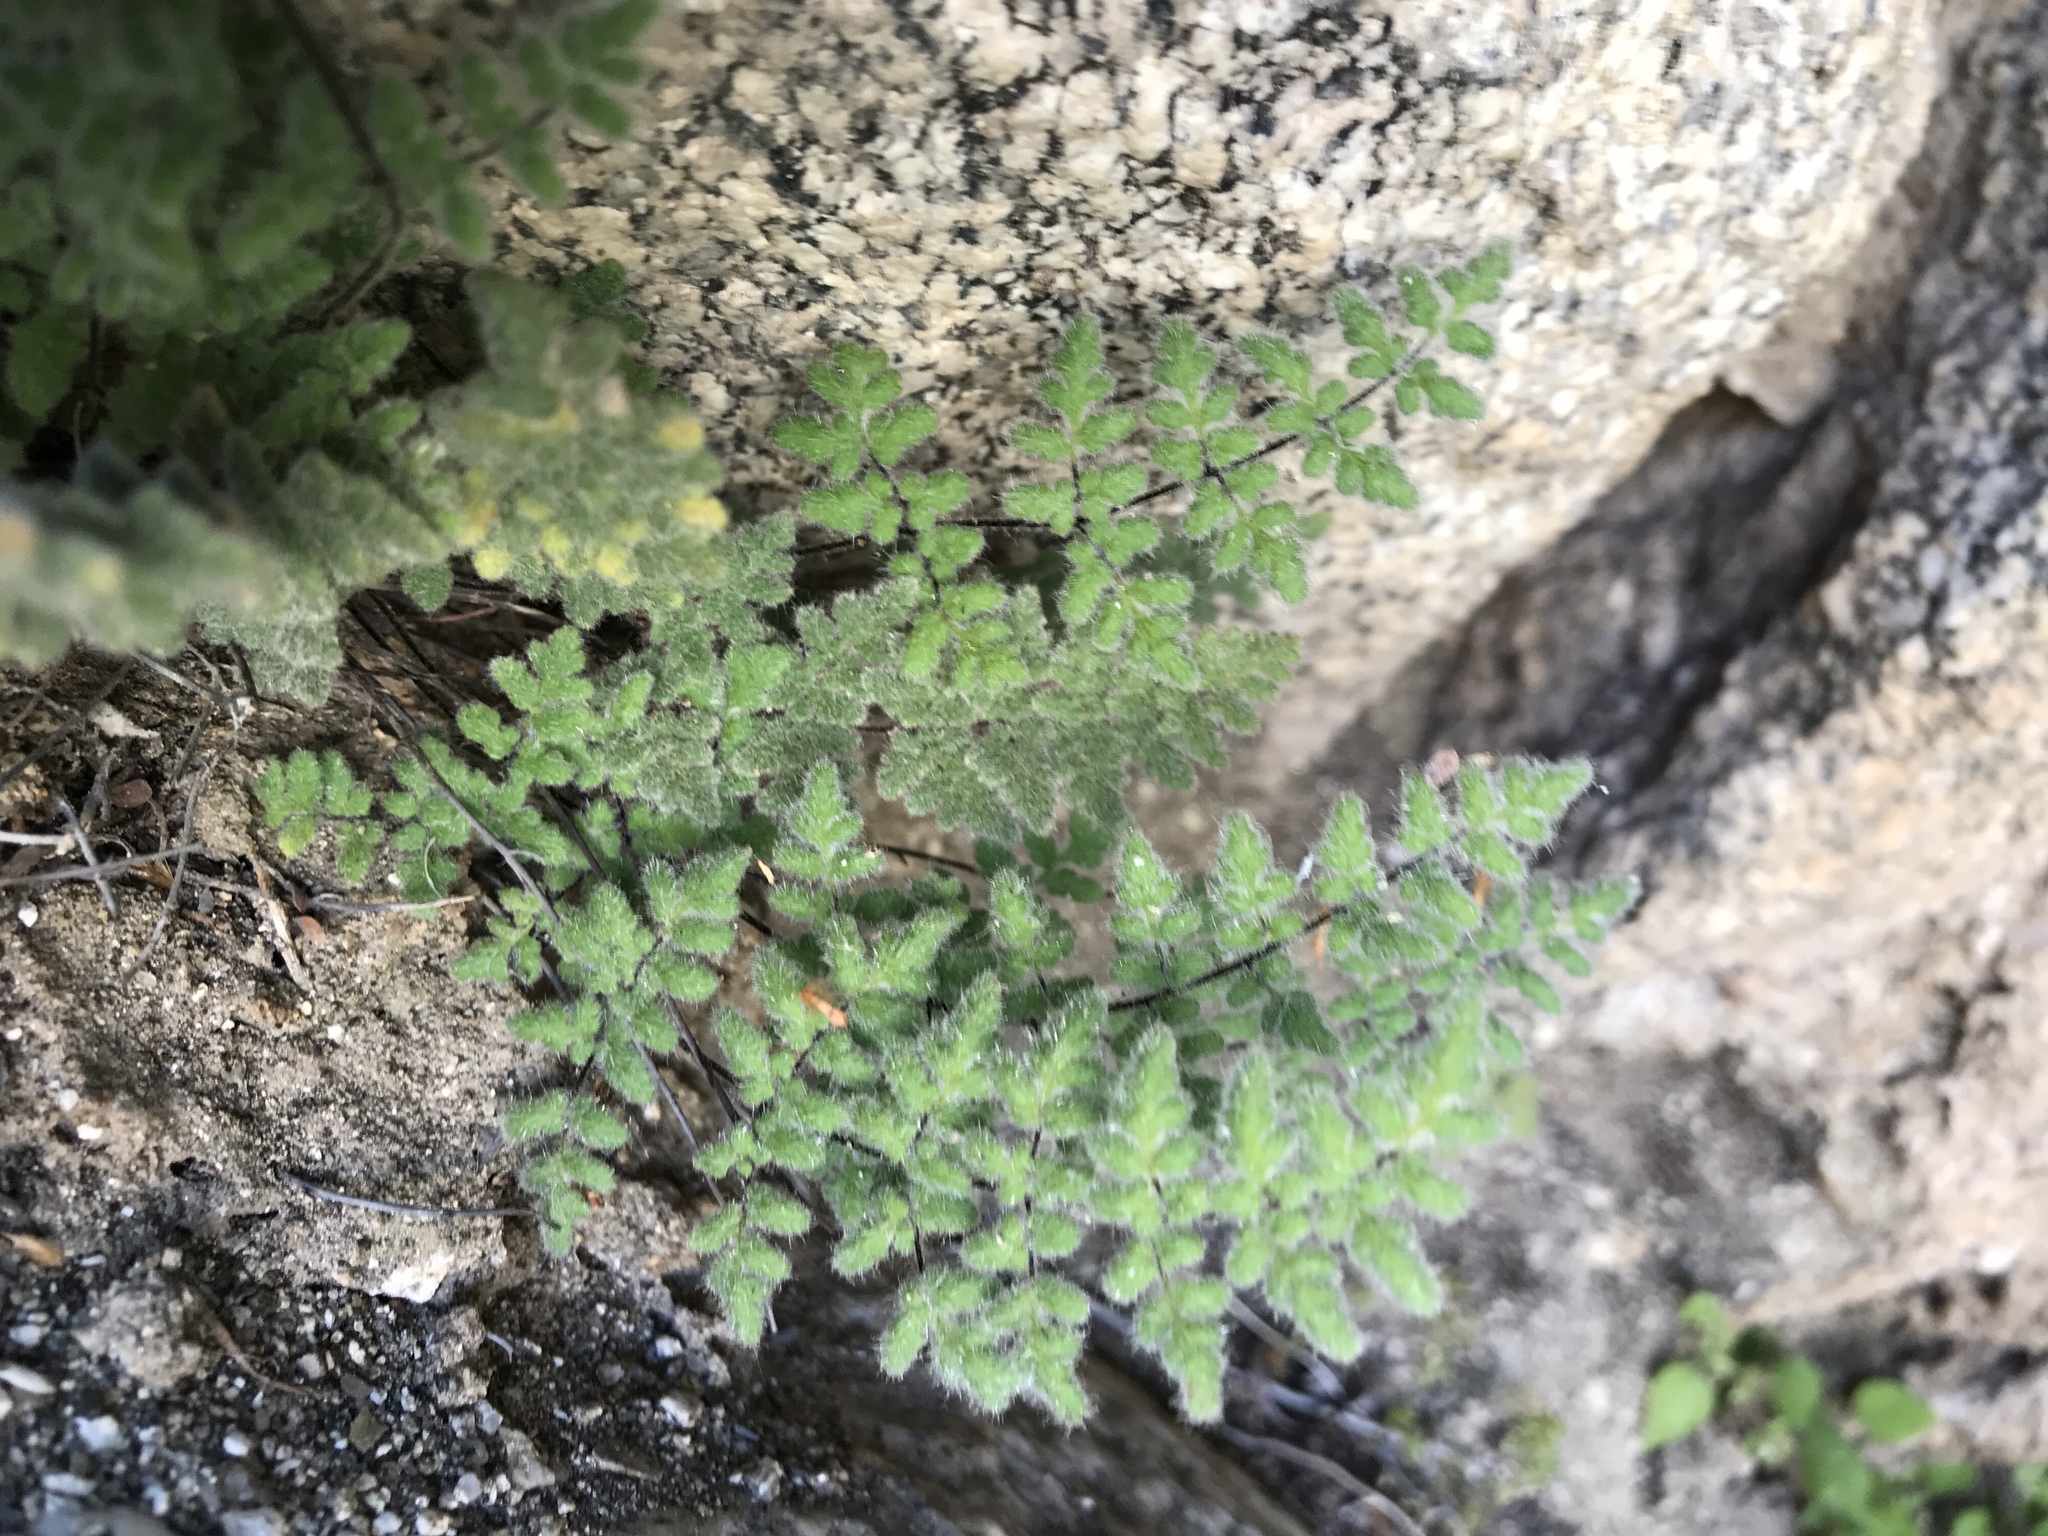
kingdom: Plantae
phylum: Tracheophyta
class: Polypodiopsida
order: Polypodiales
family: Pteridaceae
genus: Myriopteris
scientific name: Myriopteris parryi
